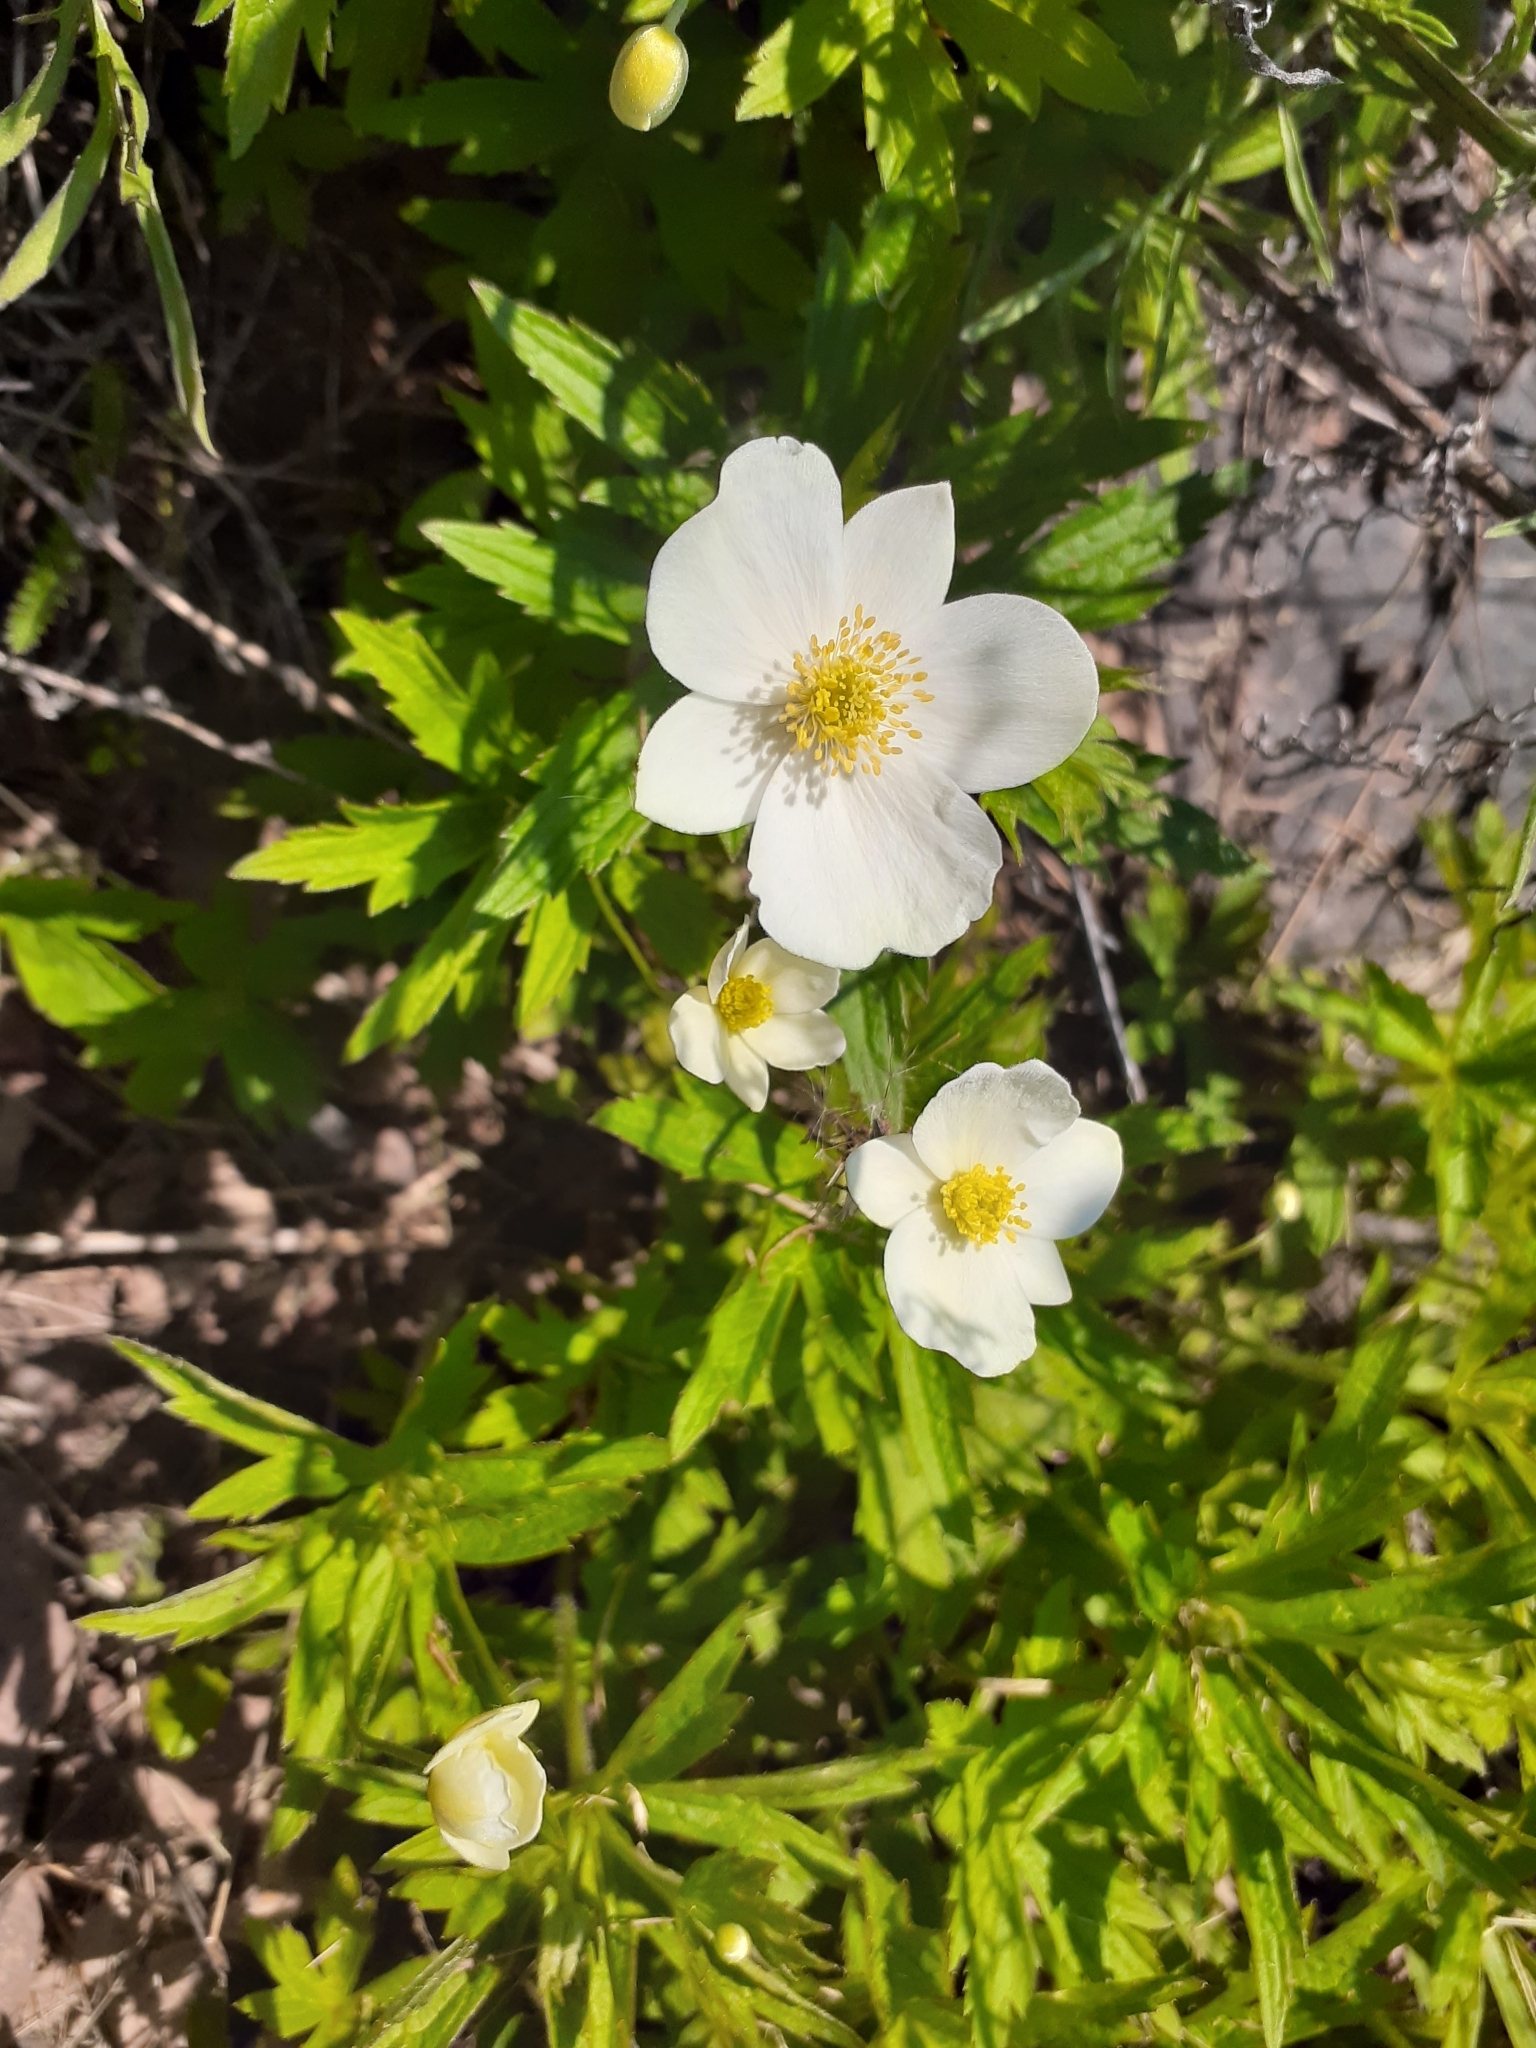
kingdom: Plantae
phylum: Tracheophyta
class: Magnoliopsida
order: Ranunculales
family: Ranunculaceae
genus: Anemonastrum
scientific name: Anemonastrum canadense
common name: Canada anemone
